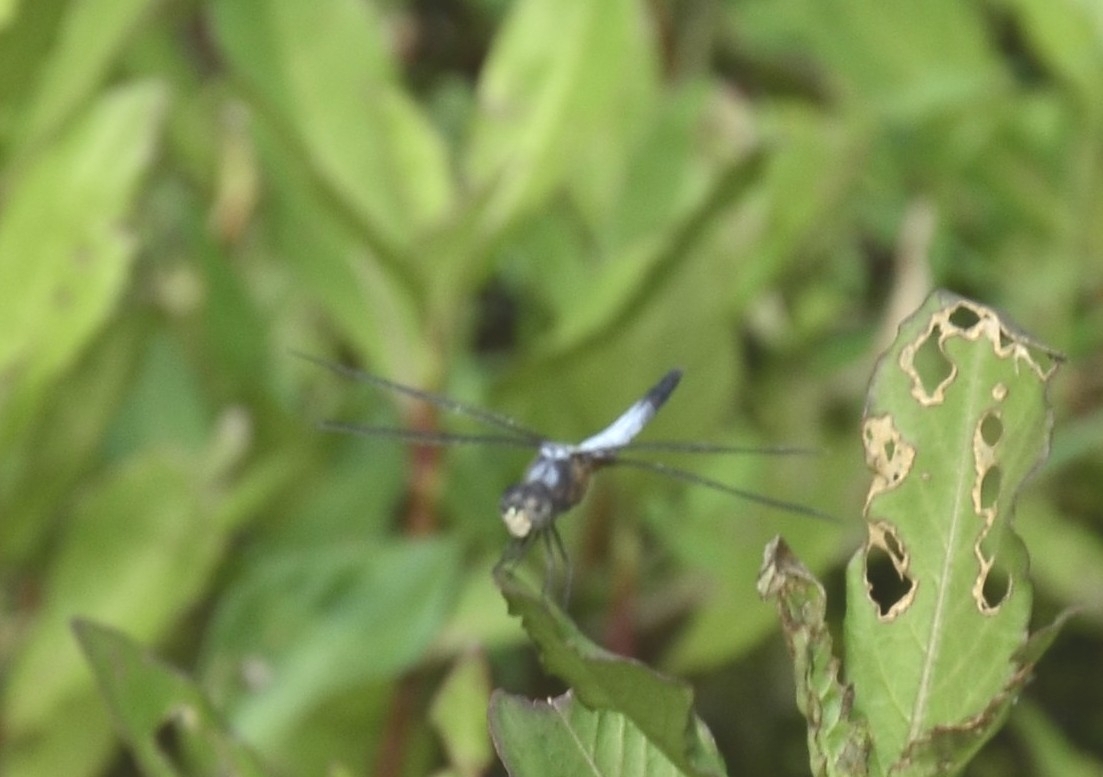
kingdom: Animalia
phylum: Arthropoda
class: Insecta
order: Odonata
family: Libellulidae
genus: Brachydiplax
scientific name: Brachydiplax chalybea
